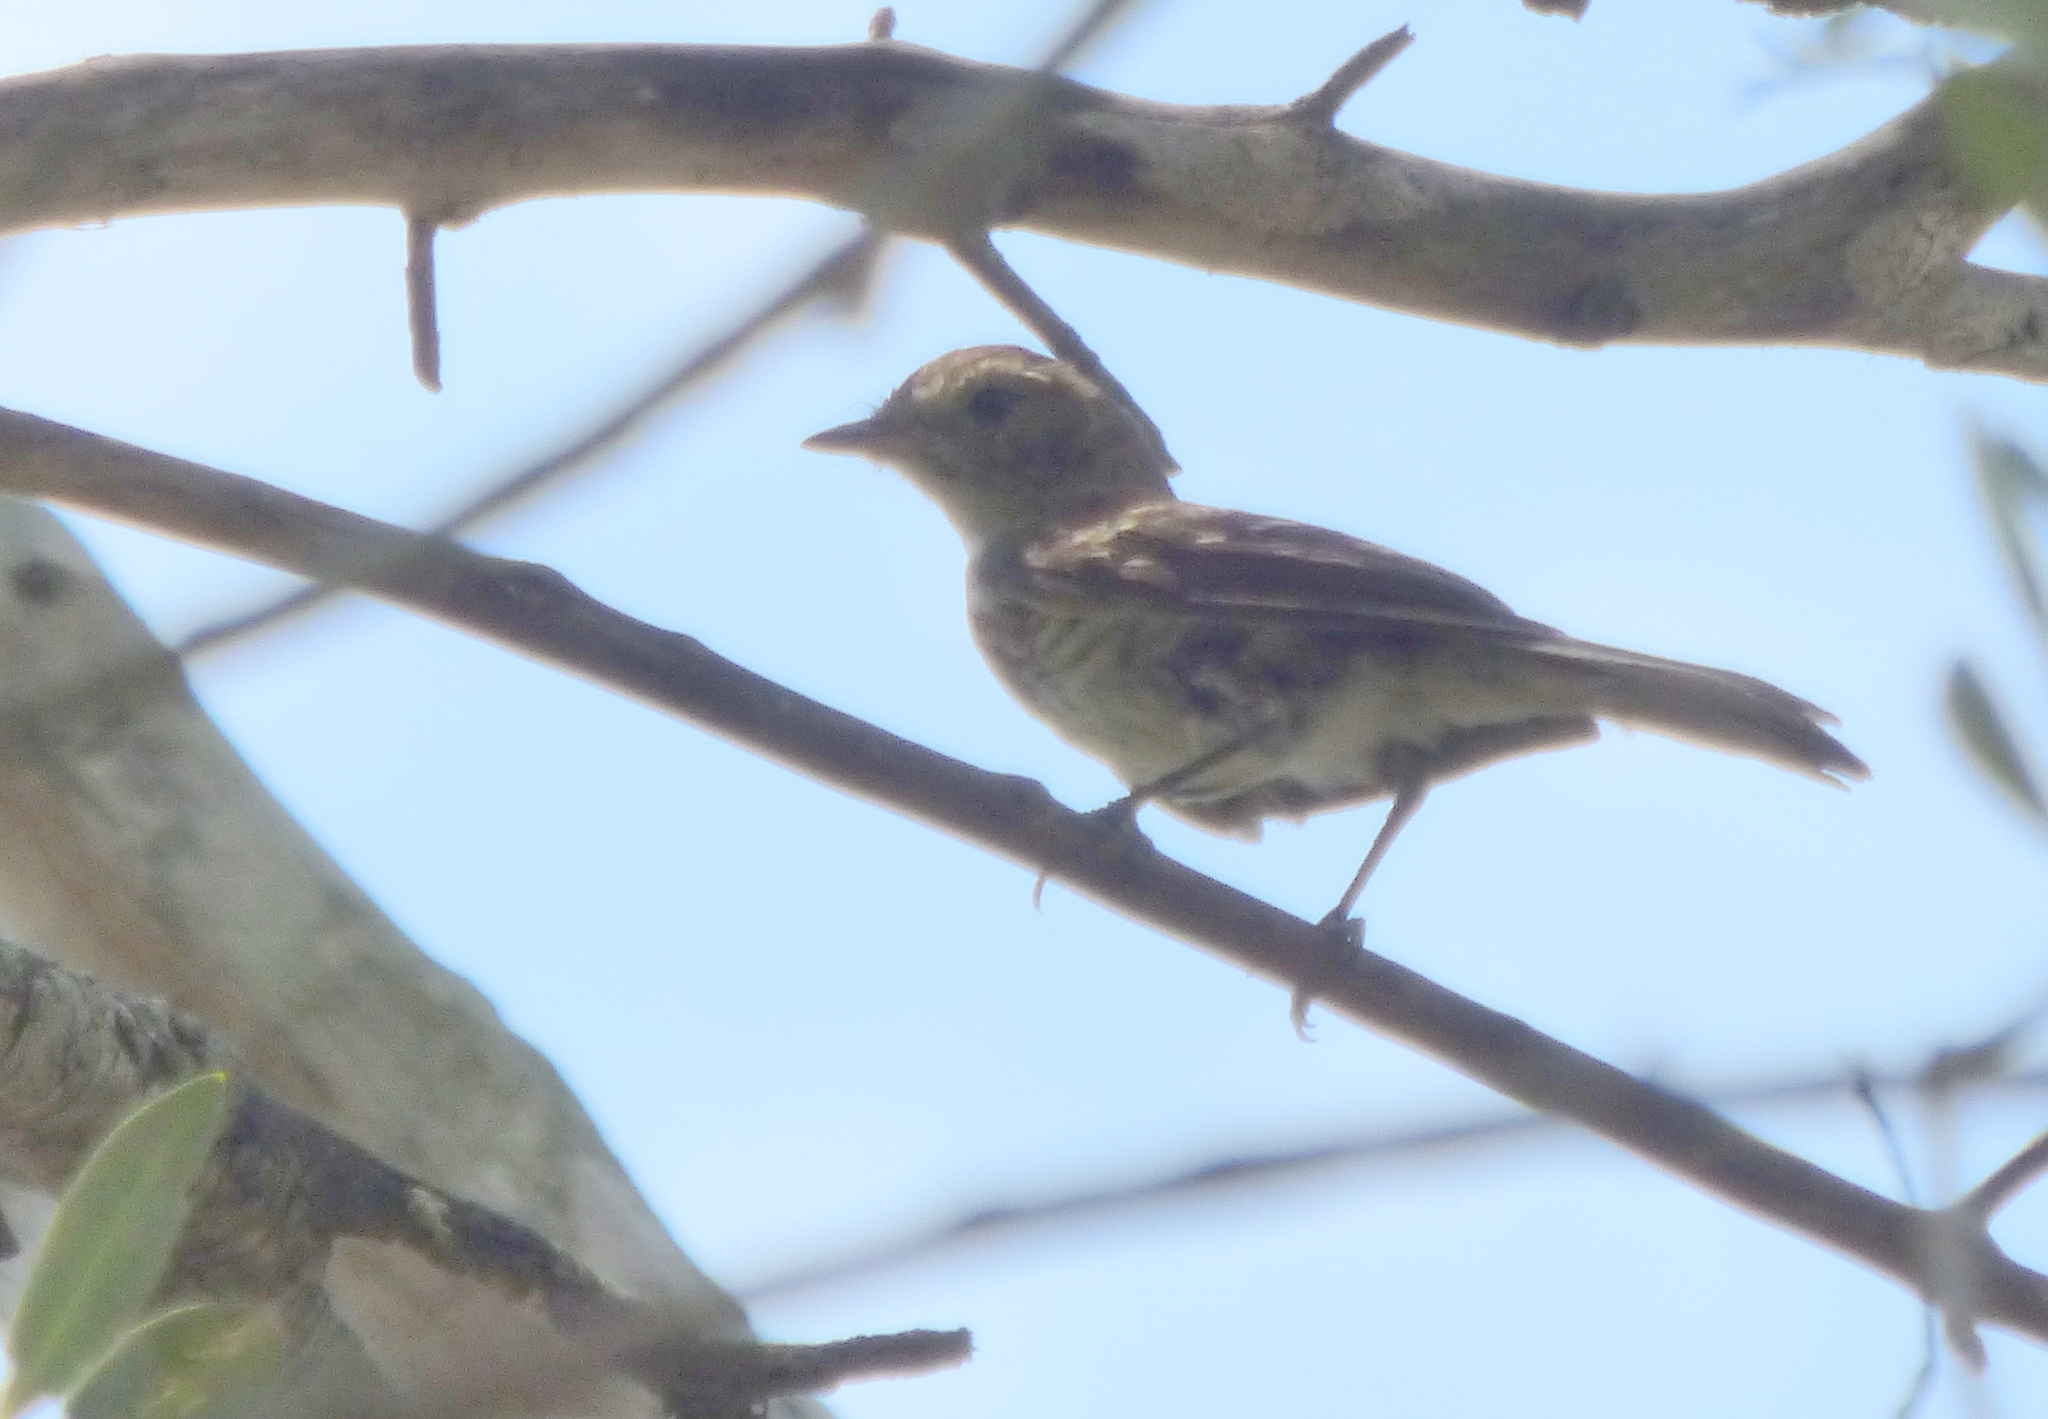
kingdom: Animalia
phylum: Chordata
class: Aves
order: Passeriformes
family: Tyrannidae
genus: Myiophobus
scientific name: Myiophobus fasciatus
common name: Bran-colored flycatcher
